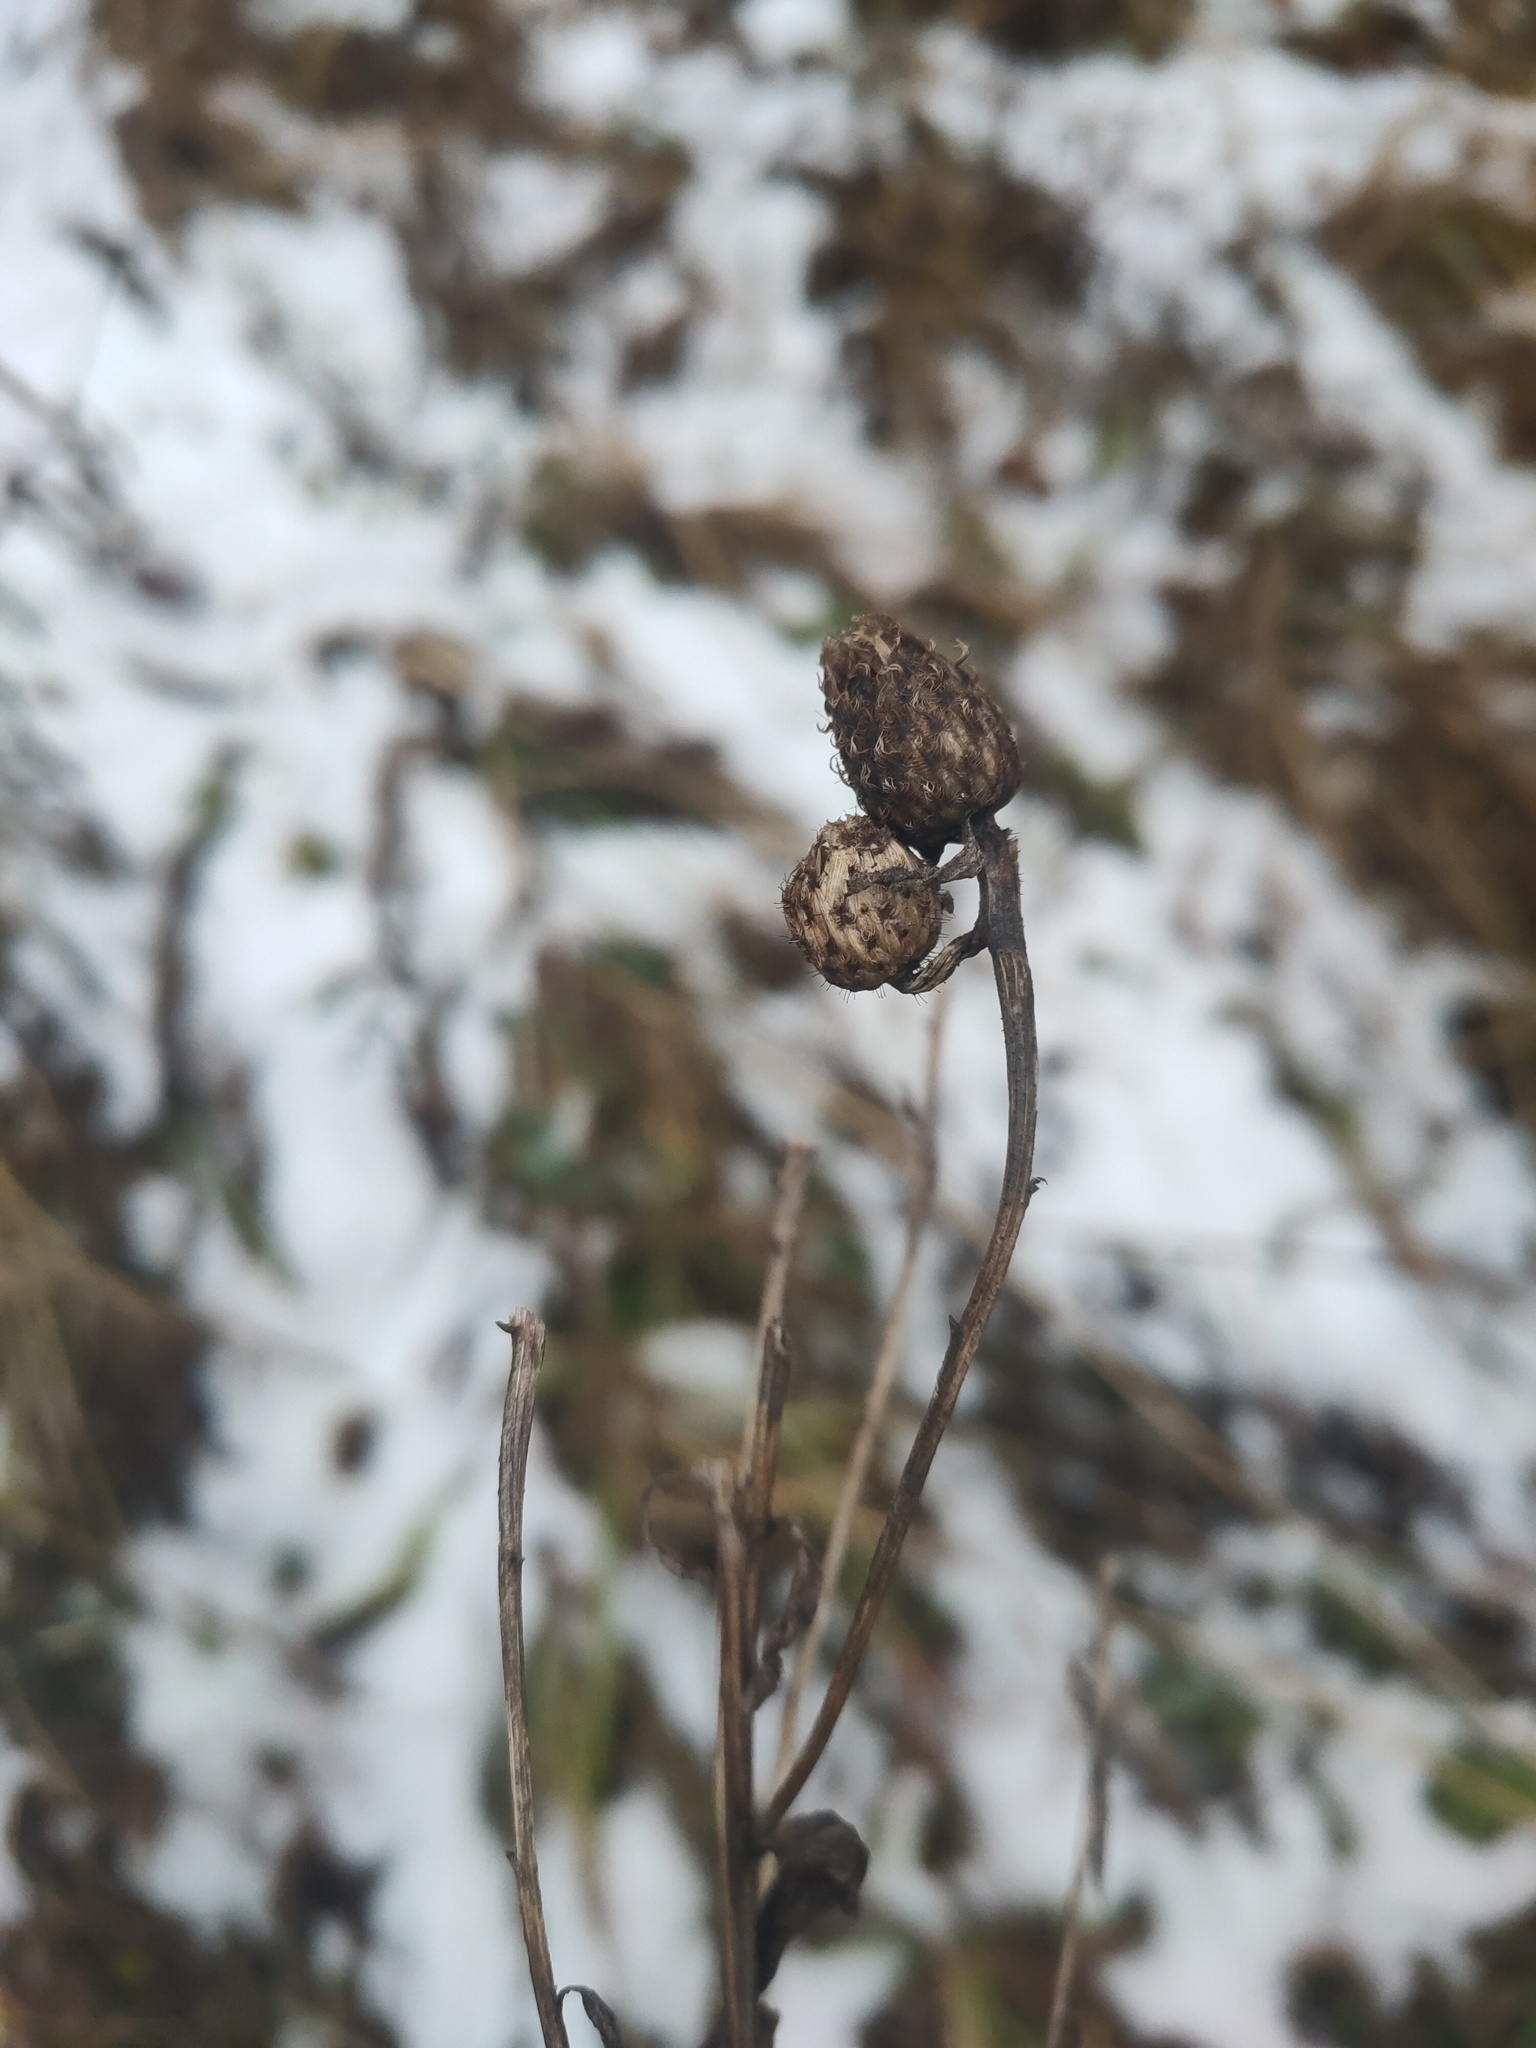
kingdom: Plantae
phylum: Tracheophyta
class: Magnoliopsida
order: Asterales
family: Asteraceae
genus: Centaurea
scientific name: Centaurea phrygia
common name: Wig knapweed
